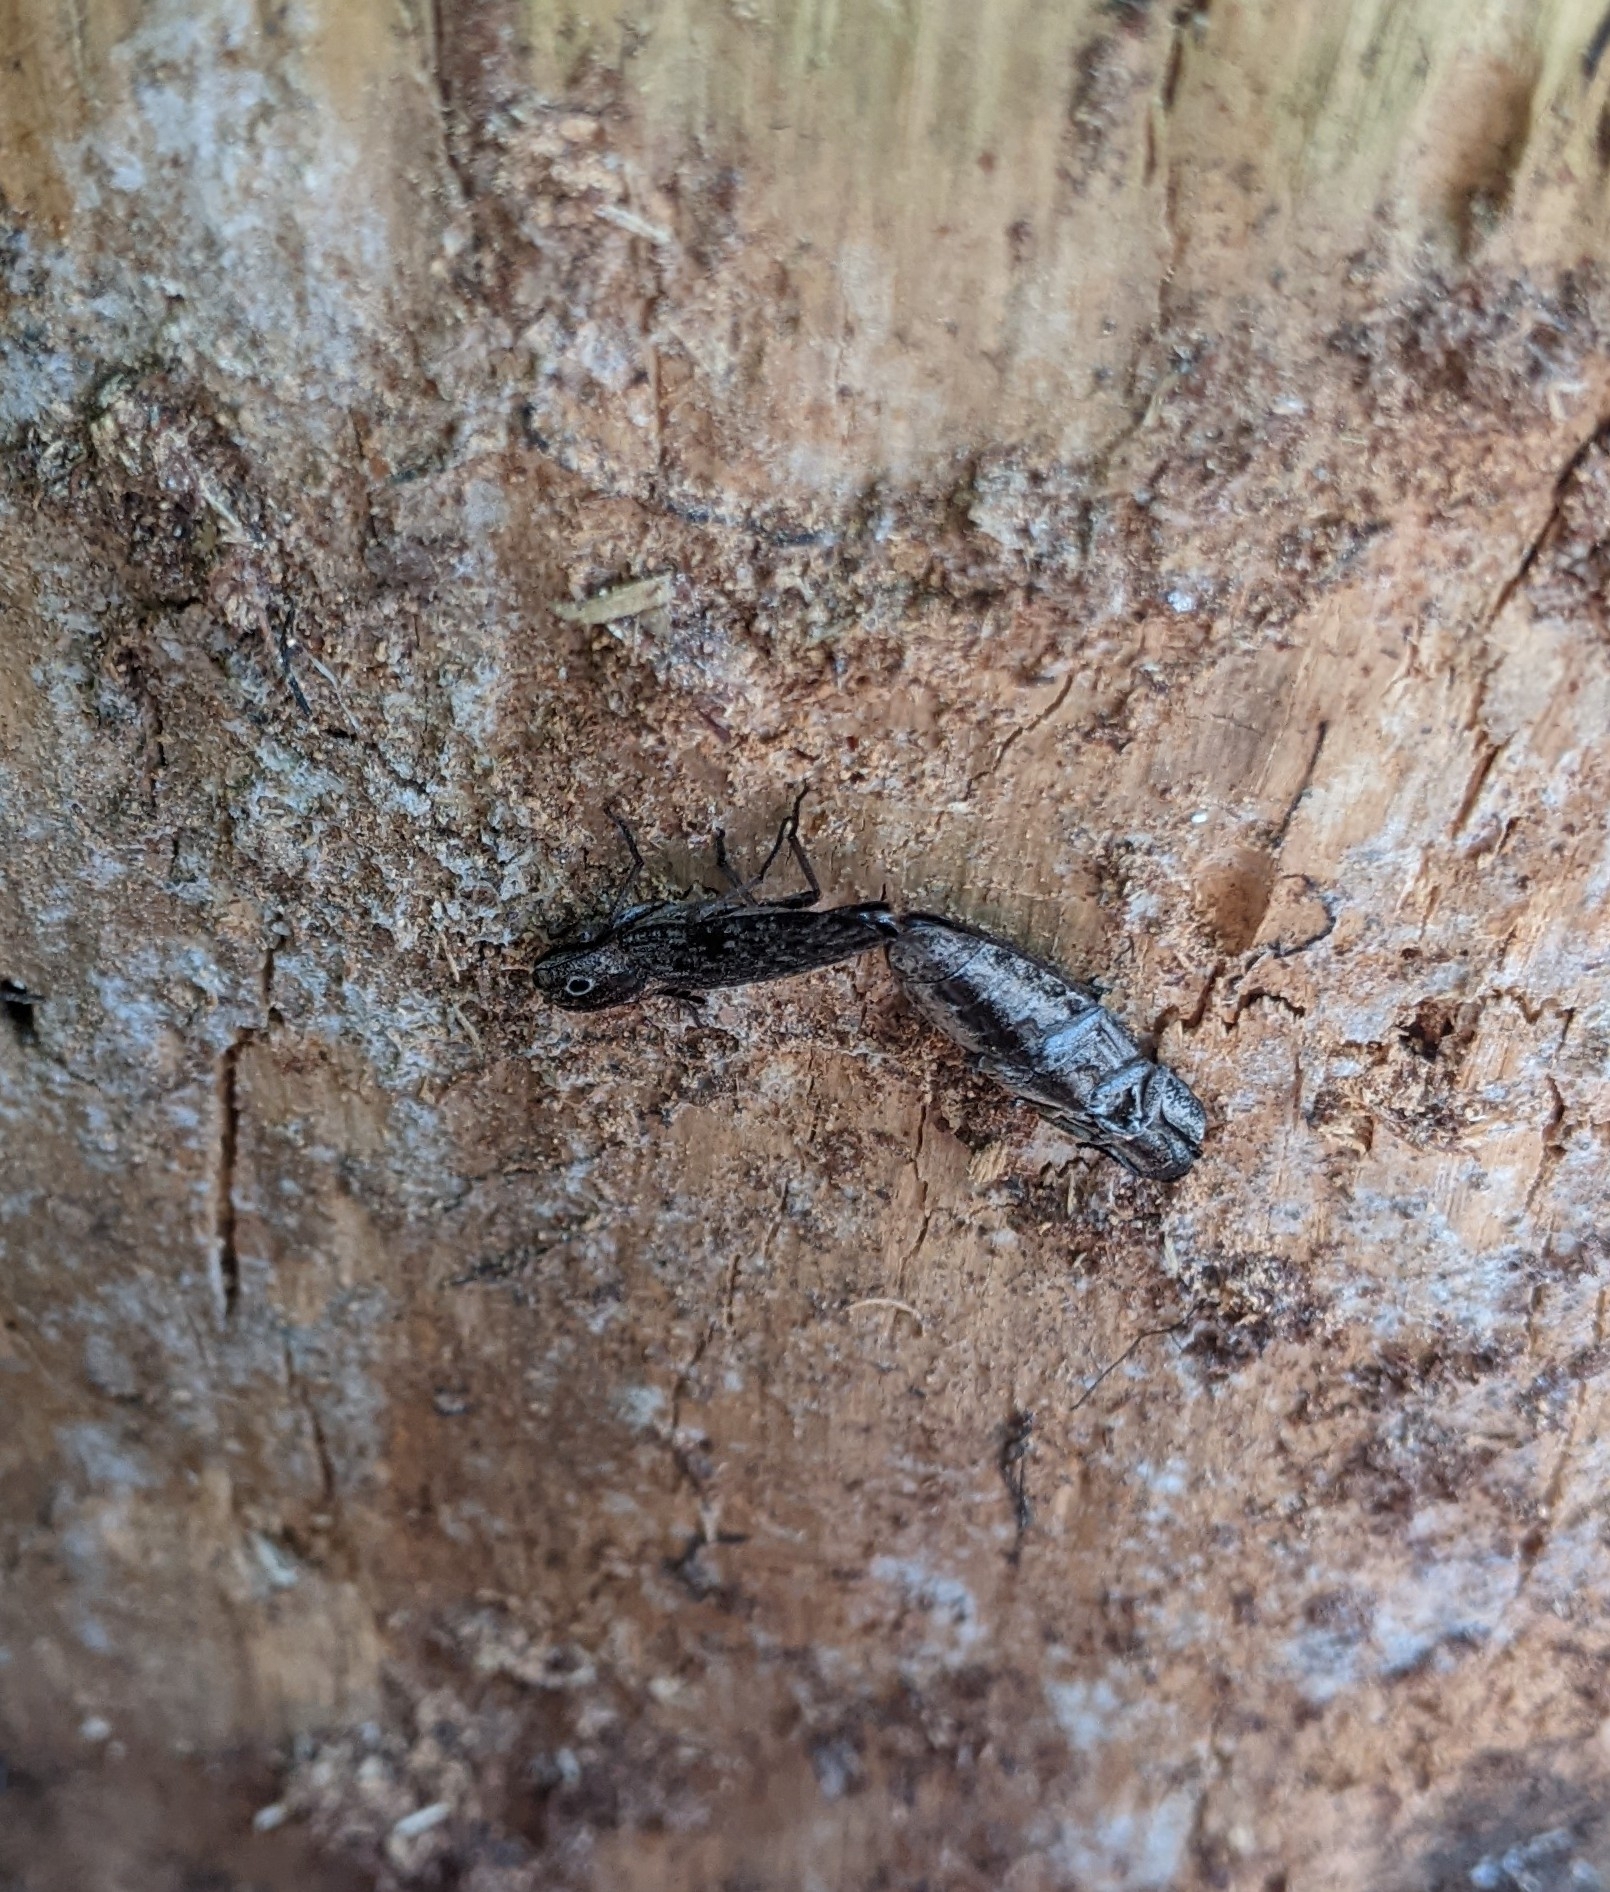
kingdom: Animalia
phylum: Arthropoda
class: Insecta
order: Coleoptera
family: Elateridae
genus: Alaus
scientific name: Alaus myops
